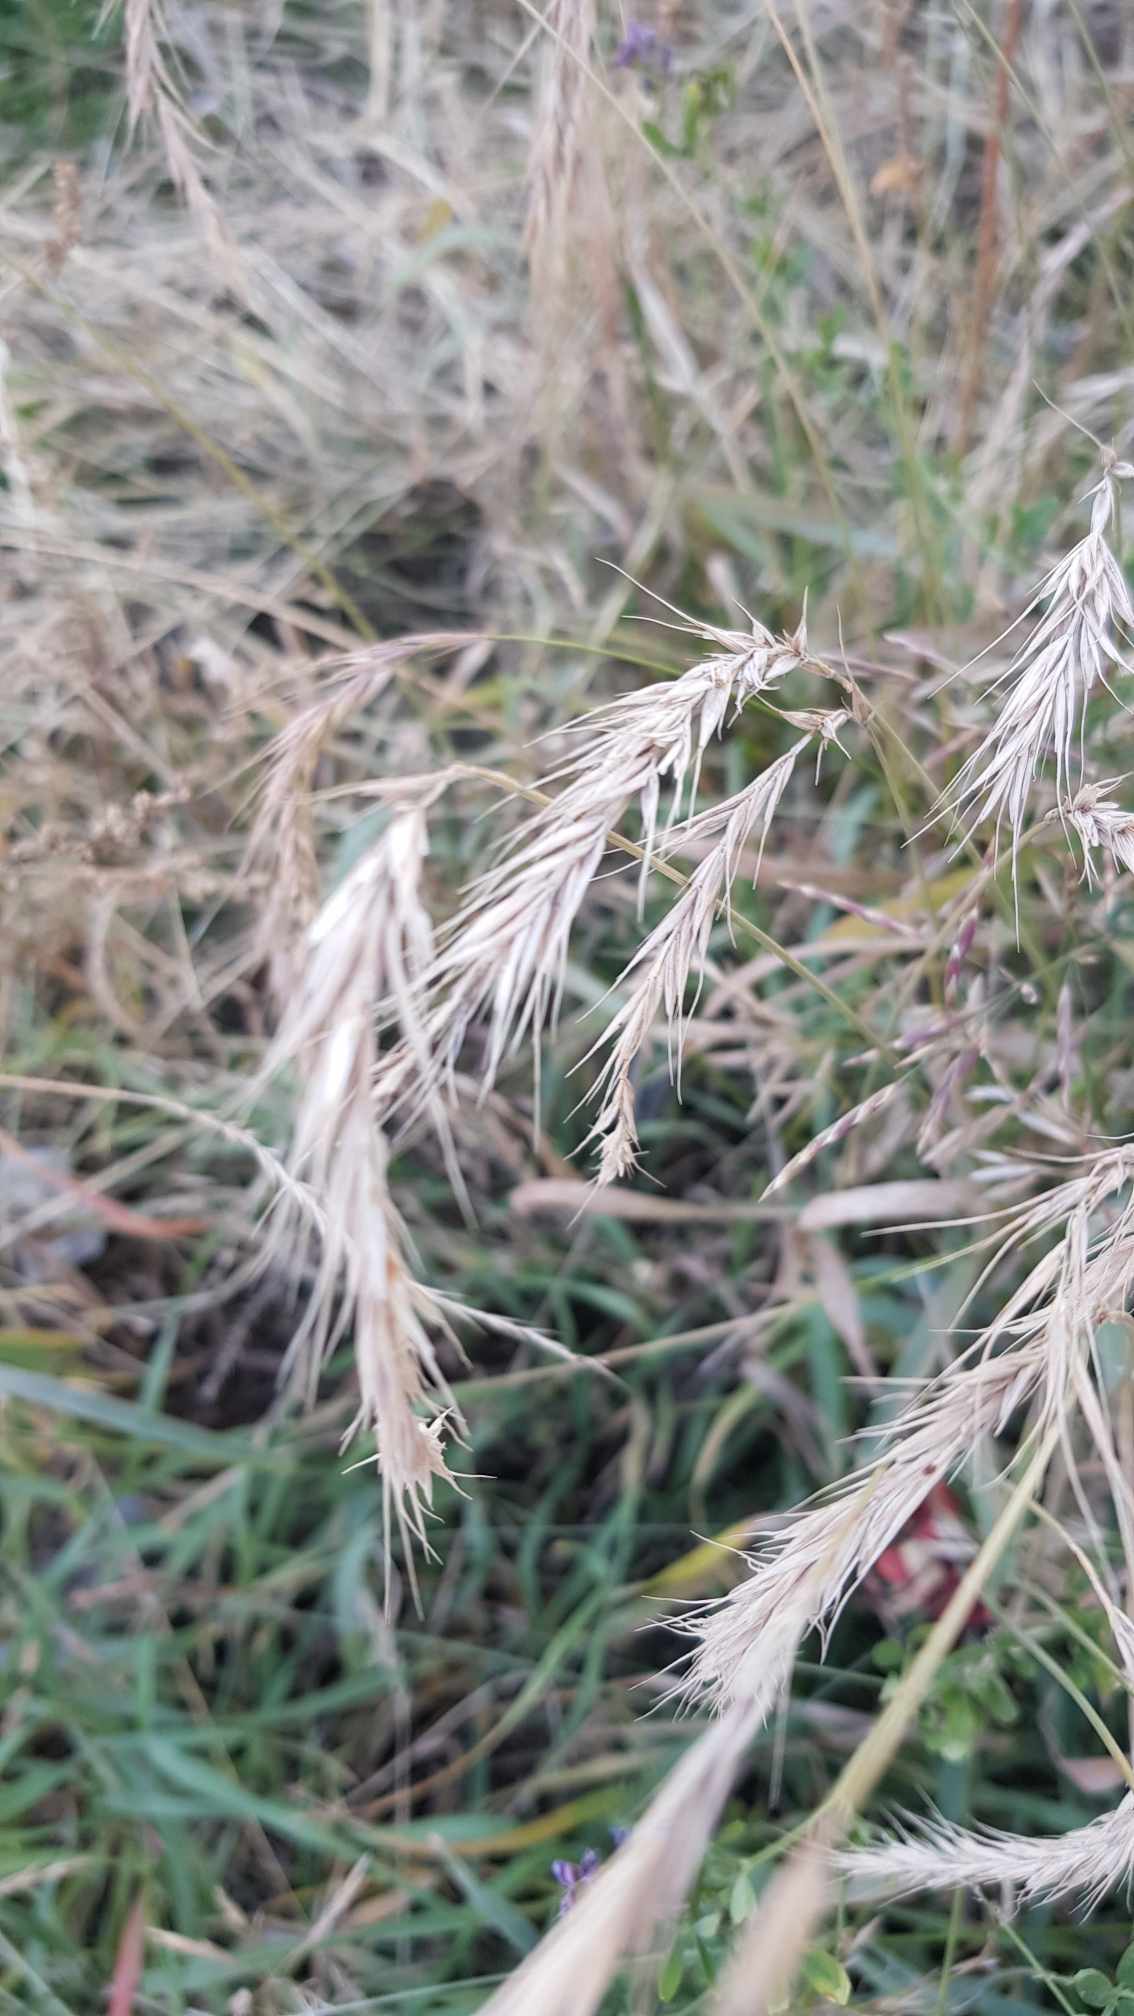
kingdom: Plantae
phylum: Tracheophyta
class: Liliopsida
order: Poales
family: Poaceae
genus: Elymus
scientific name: Elymus sibiricus
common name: Siberian wildrye
